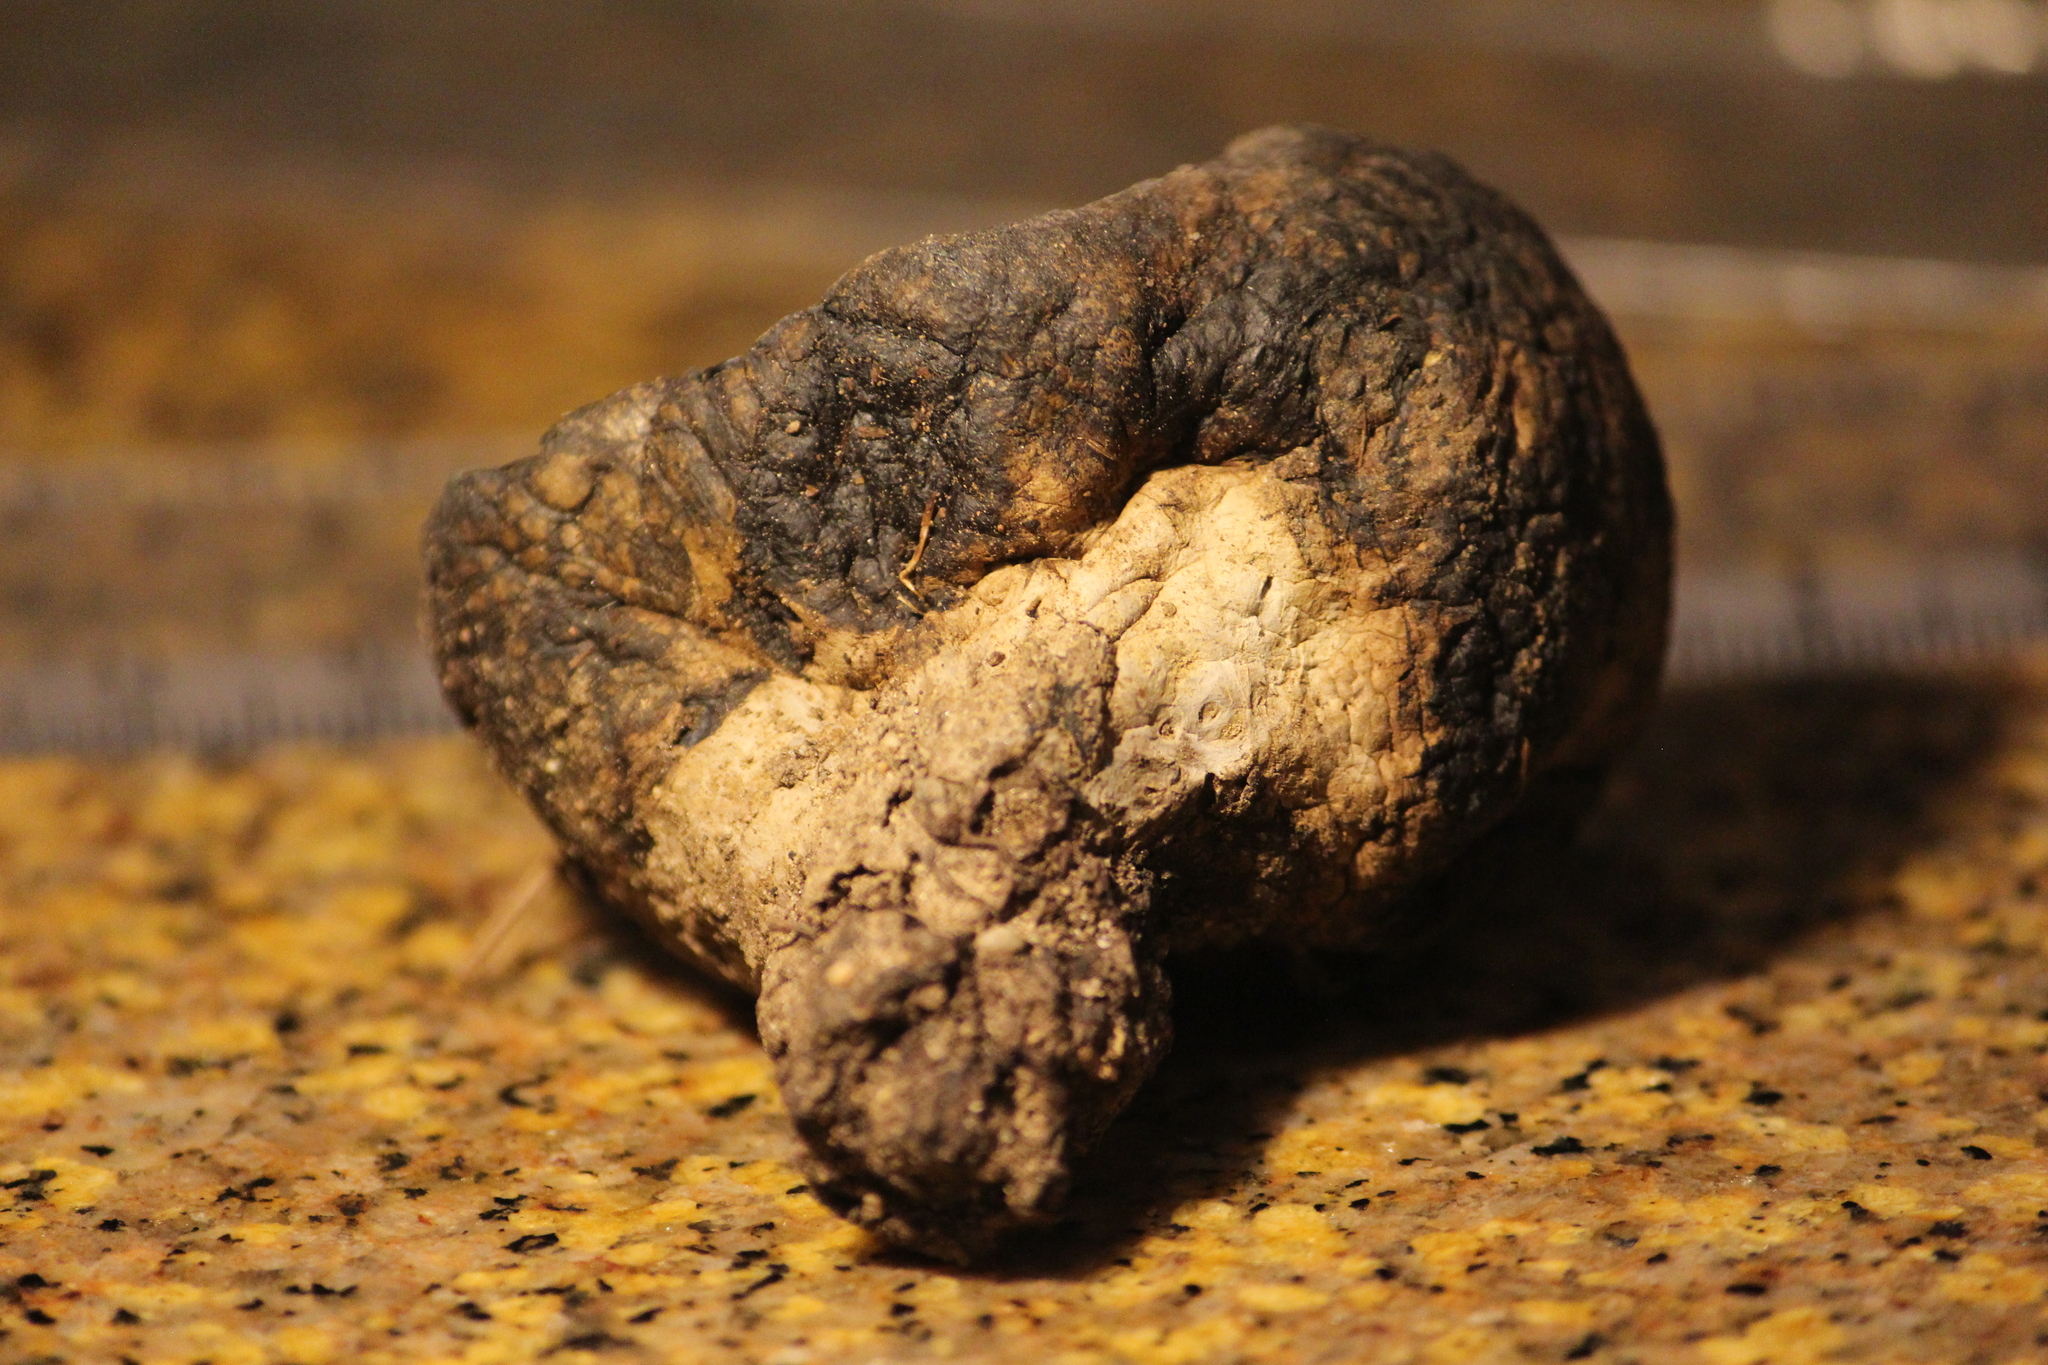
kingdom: Fungi
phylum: Basidiomycota
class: Agaricomycetes
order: Boletales
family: Sclerodermataceae
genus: Pisolithus
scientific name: Pisolithus arhizus
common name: Dyeball
